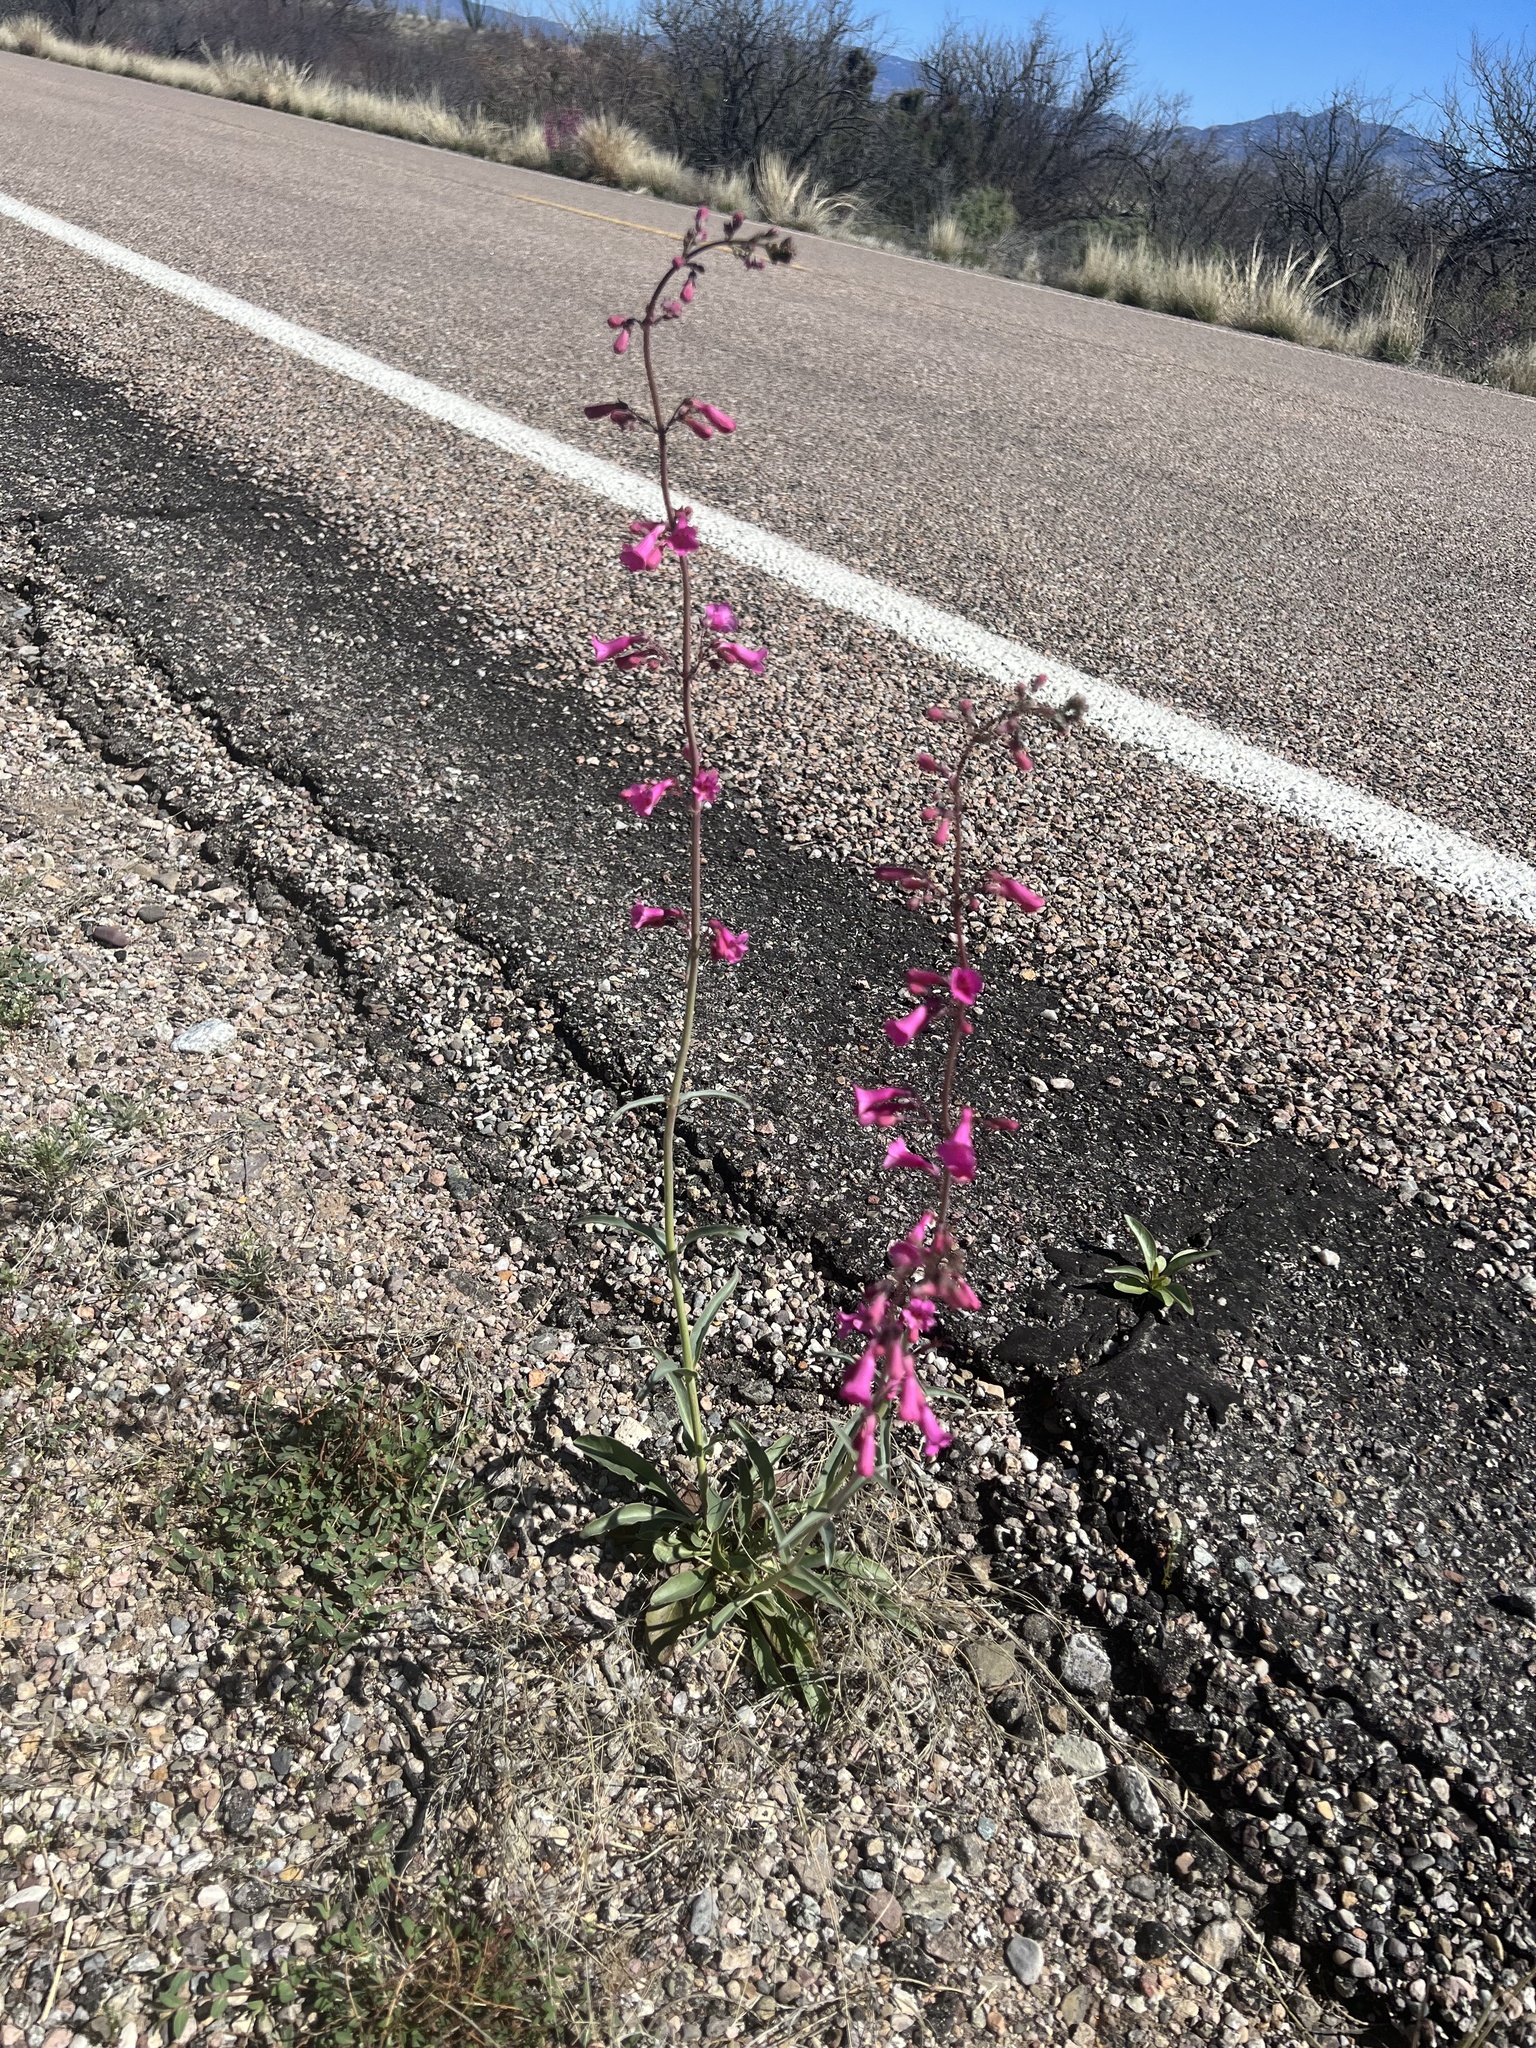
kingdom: Plantae
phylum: Tracheophyta
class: Magnoliopsida
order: Lamiales
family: Plantaginaceae
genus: Penstemon
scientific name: Penstemon parryi
